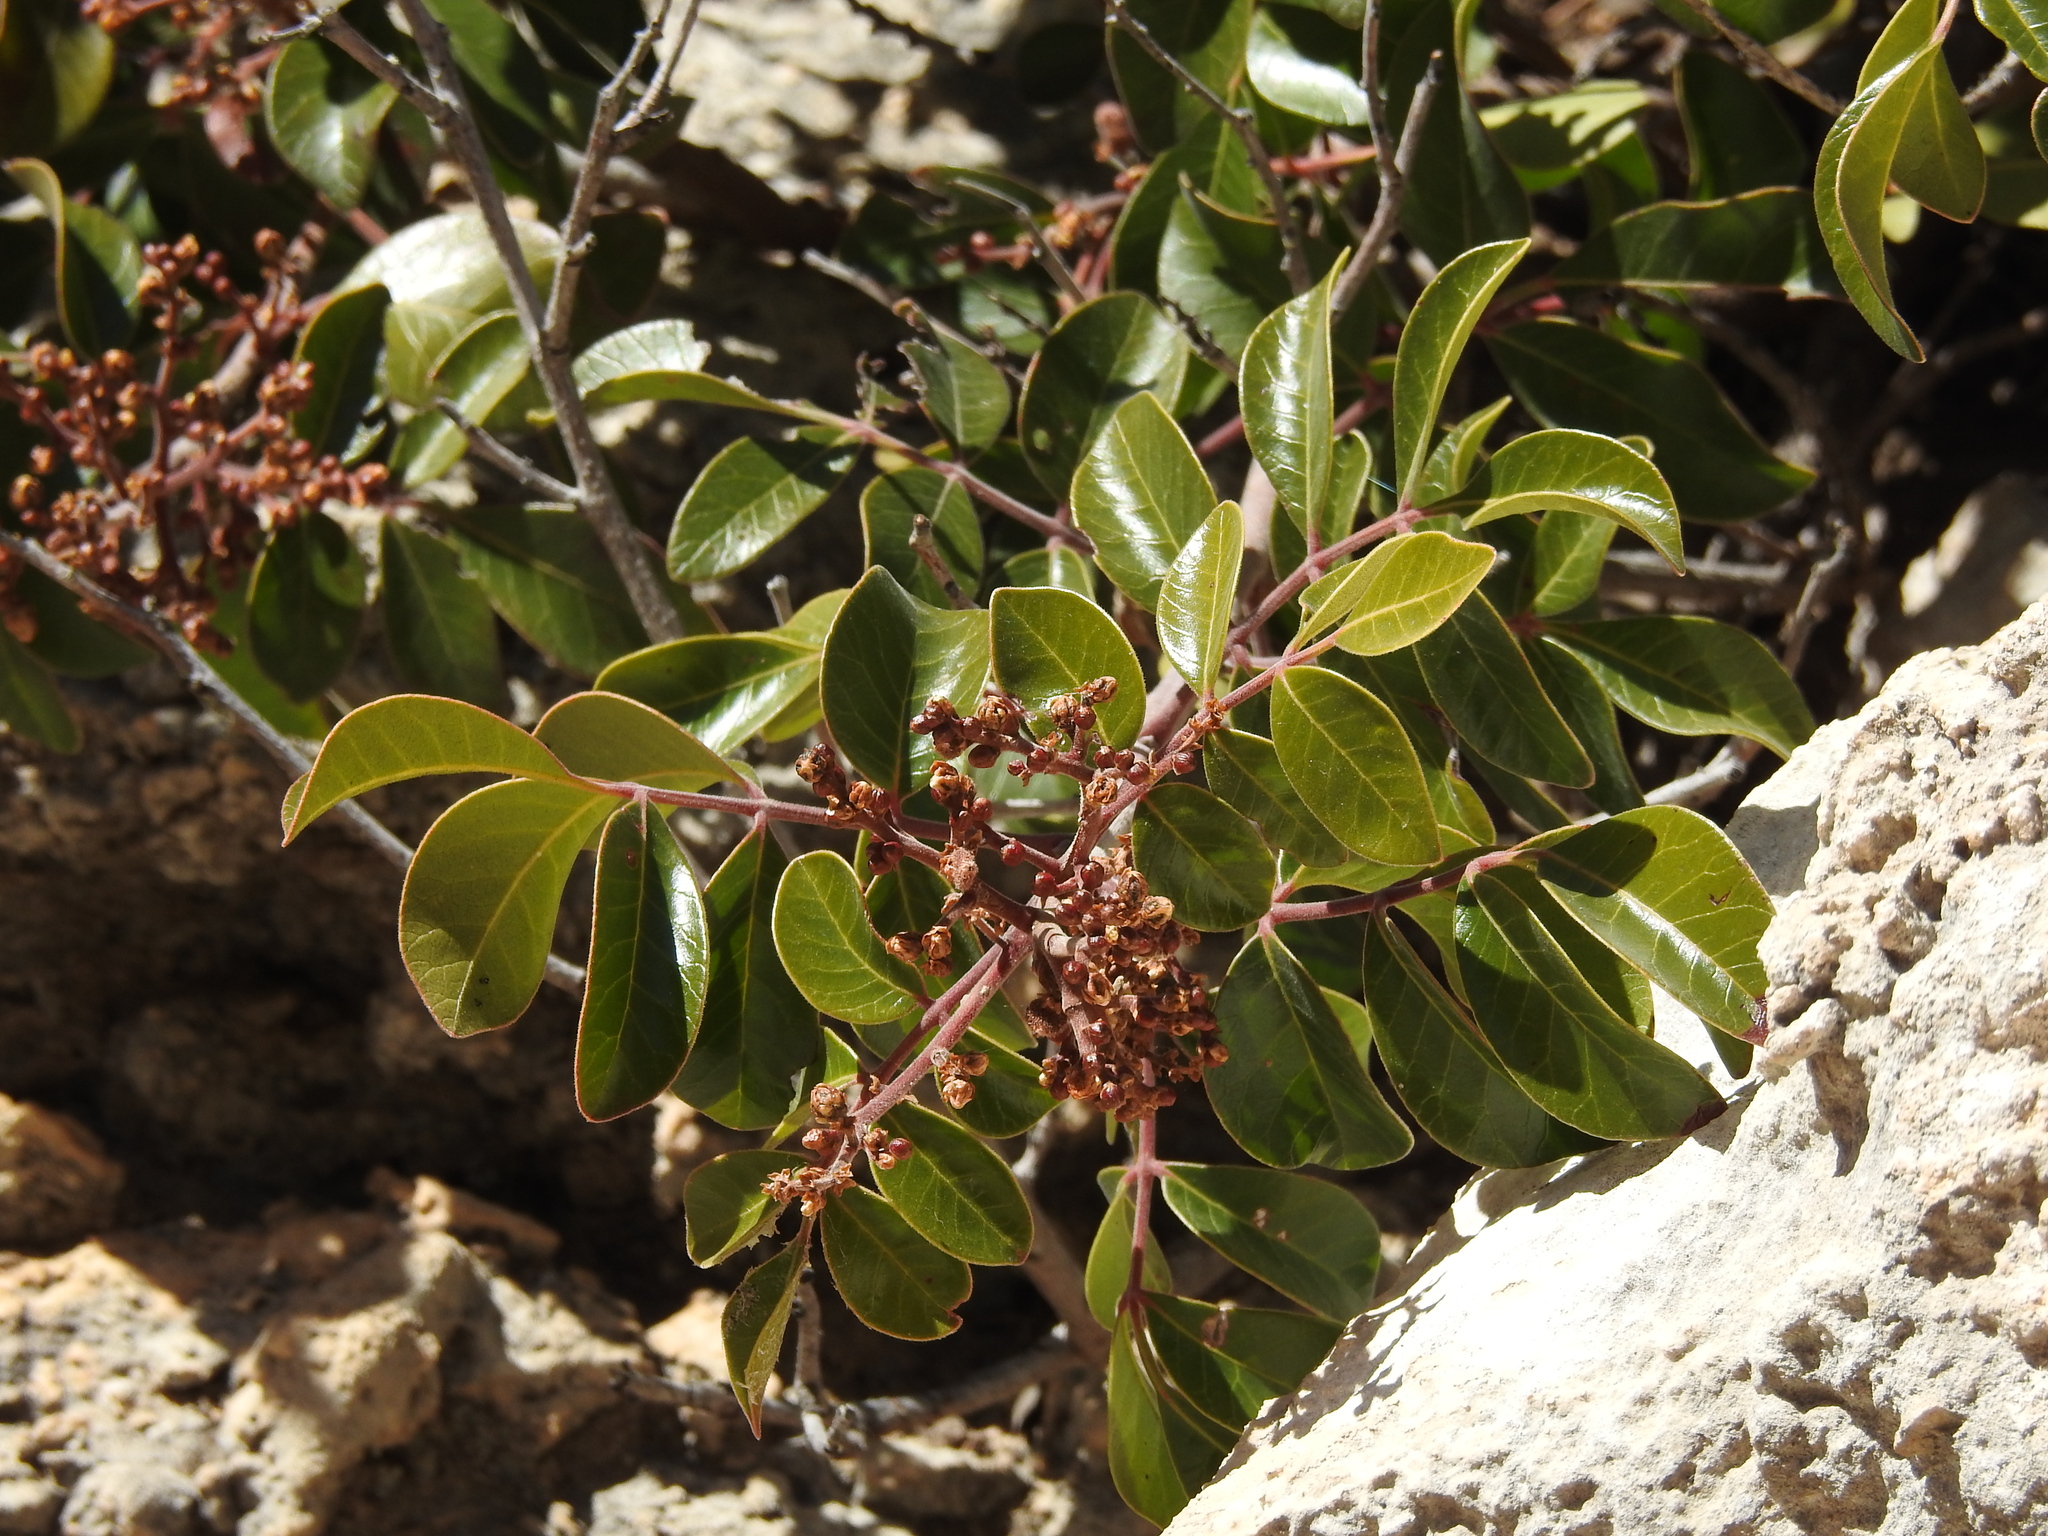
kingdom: Plantae
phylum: Tracheophyta
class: Magnoliopsida
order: Sapindales
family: Anacardiaceae
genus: Rhus
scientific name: Rhus virens
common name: Evergreen sumac
